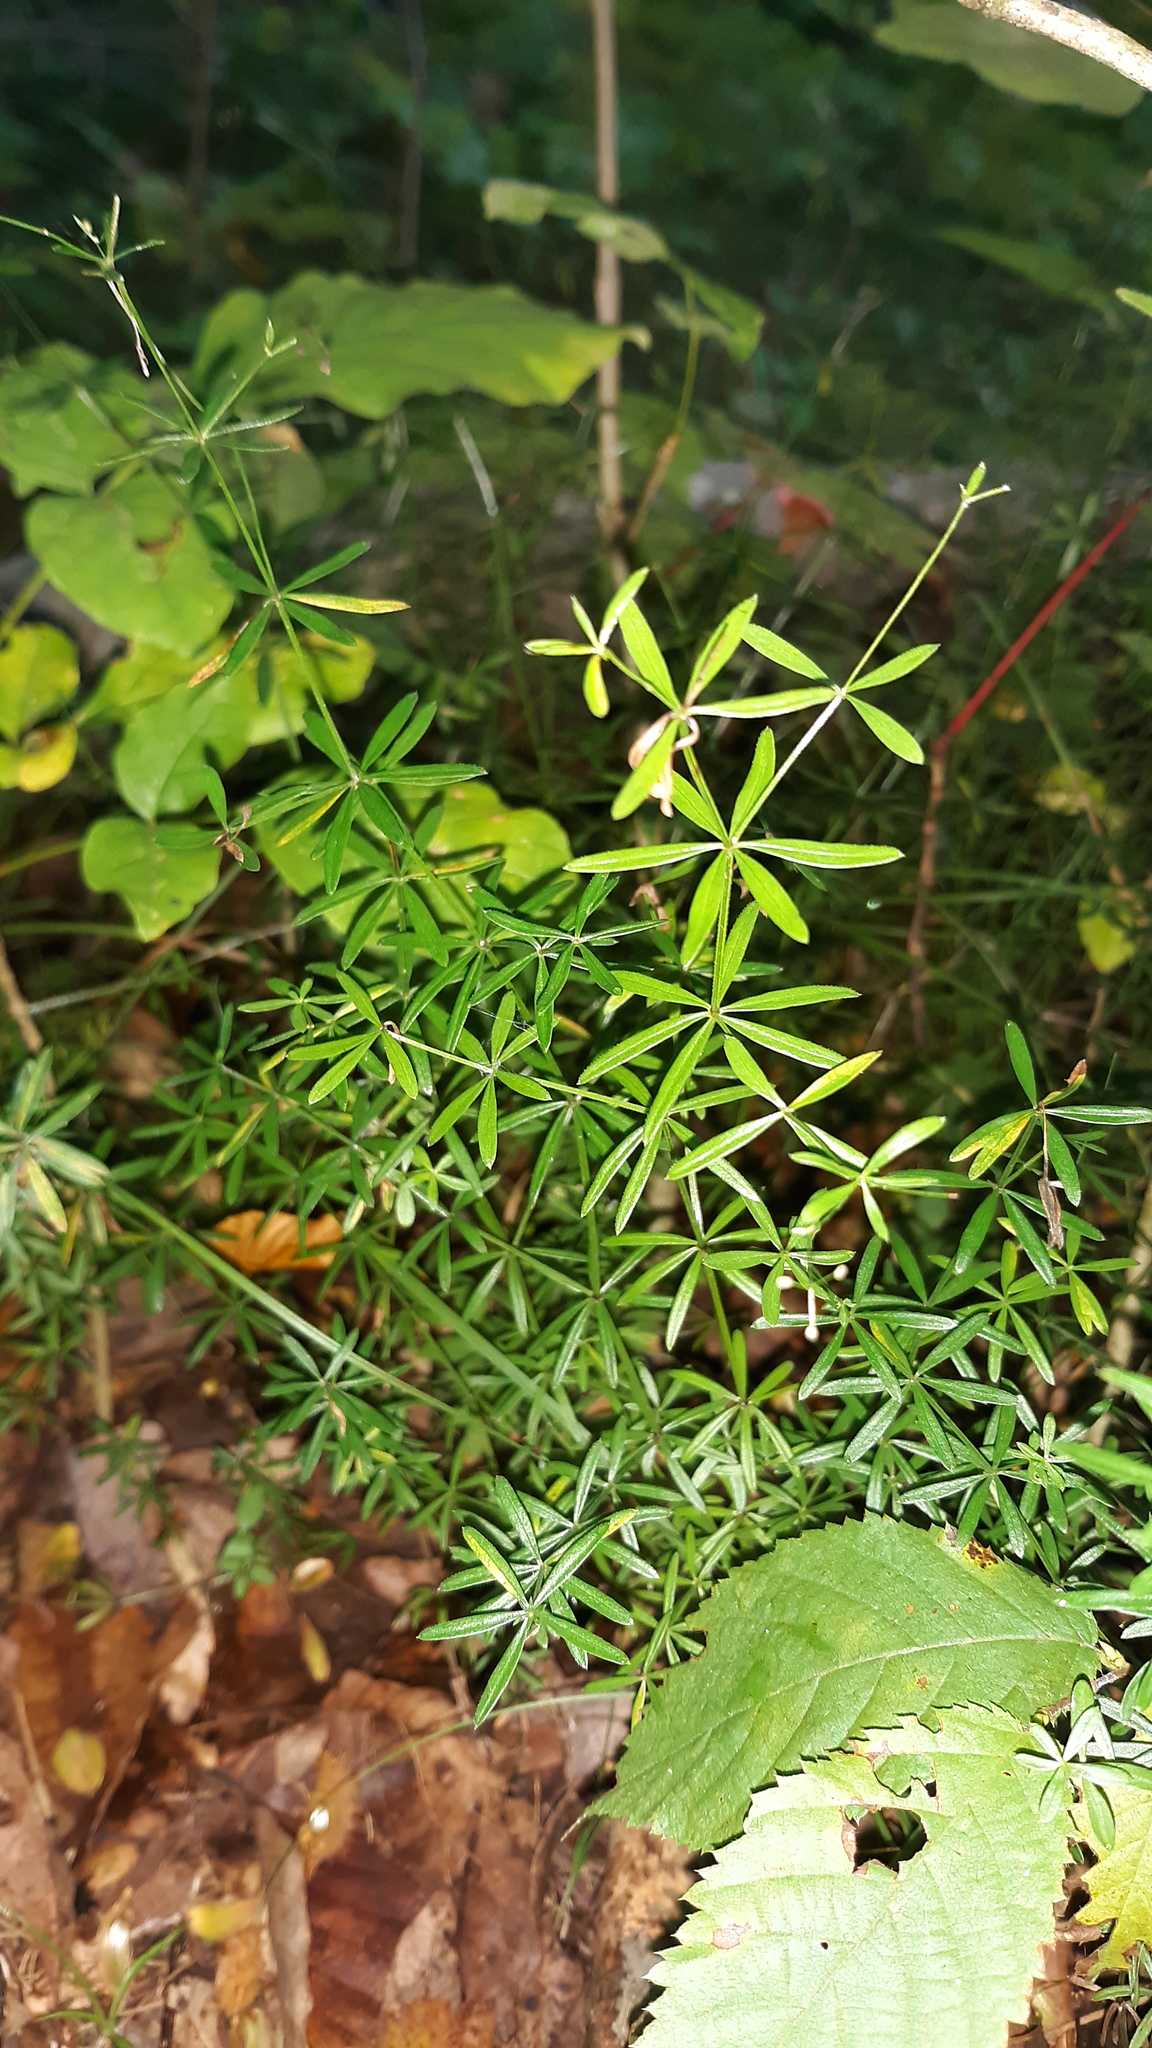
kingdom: Plantae
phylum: Tracheophyta
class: Magnoliopsida
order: Gentianales
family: Rubiaceae
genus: Galium
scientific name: Galium concinnum
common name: Shining bedstraw
